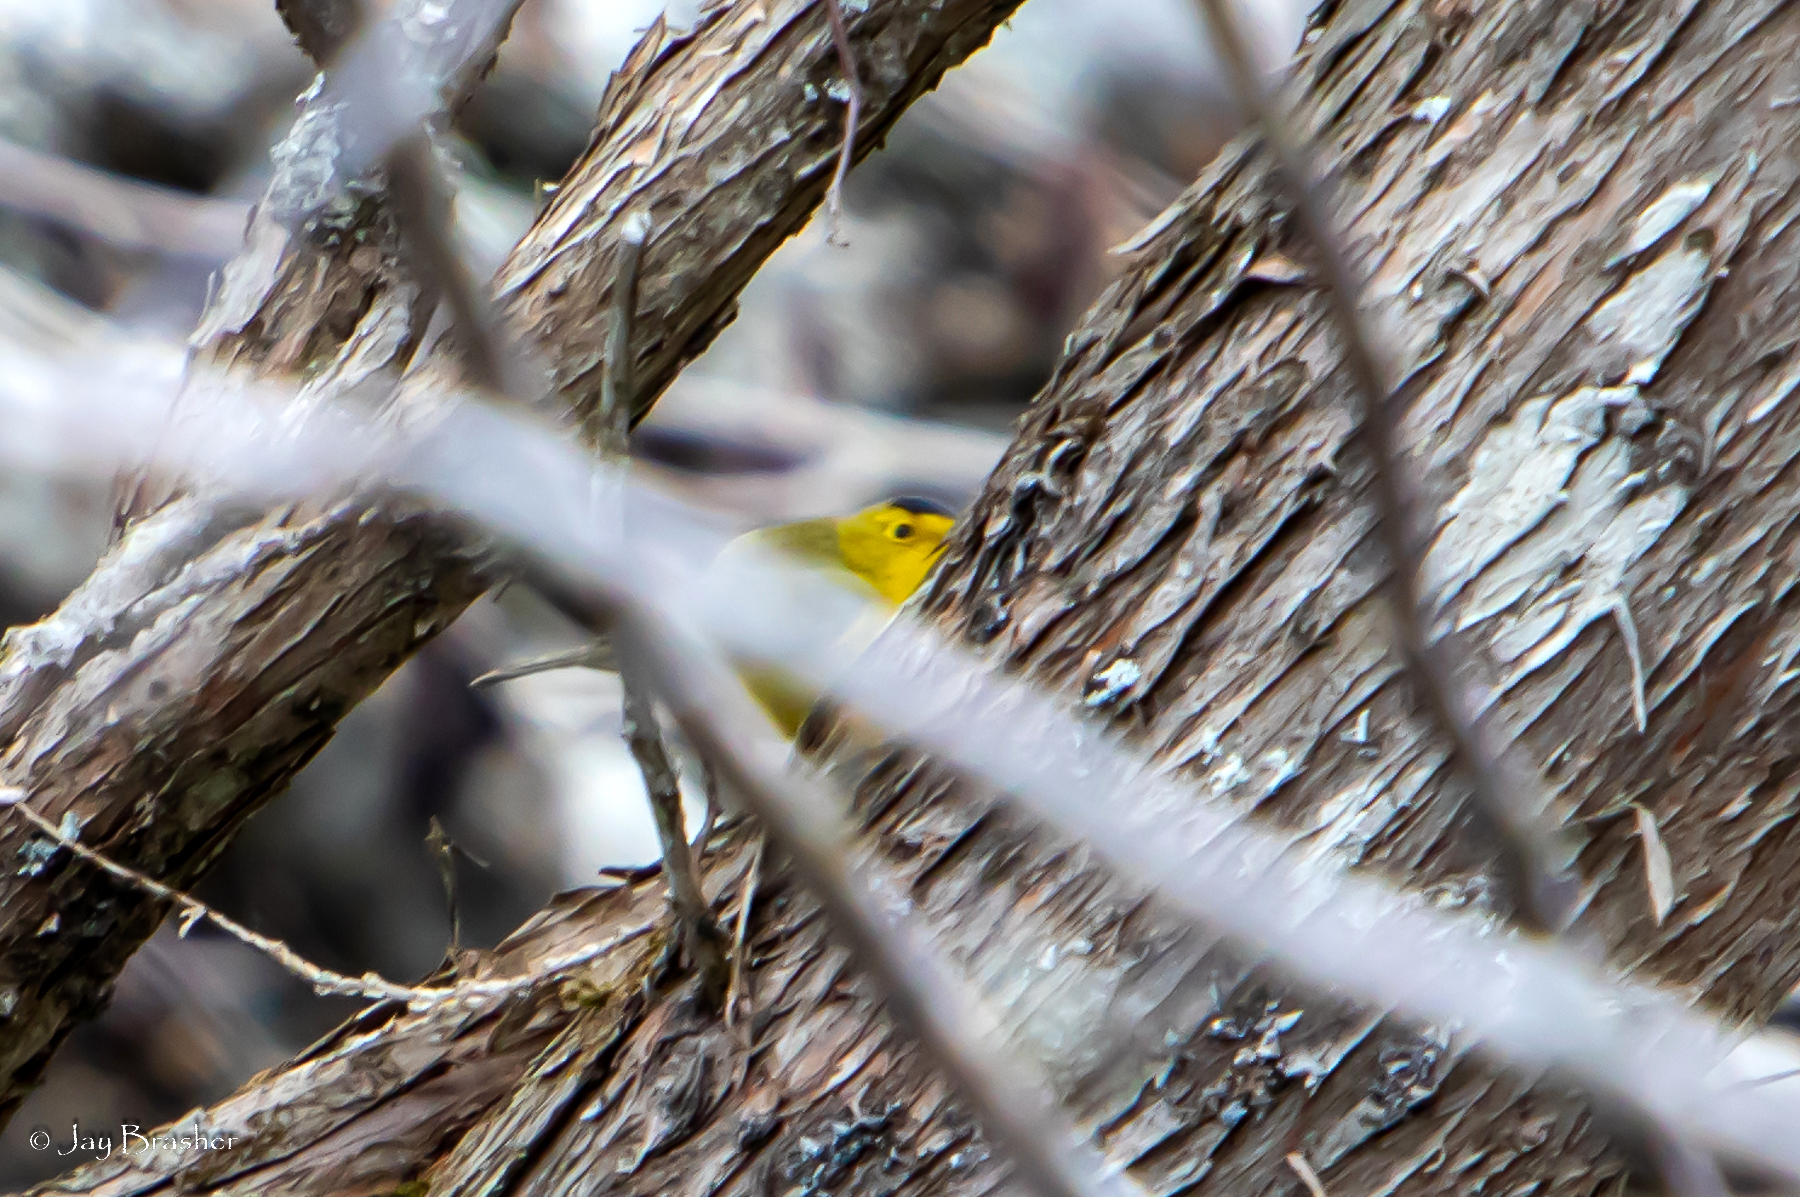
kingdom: Animalia
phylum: Chordata
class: Aves
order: Passeriformes
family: Parulidae
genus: Cardellina
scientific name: Cardellina pusilla
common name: Wilson's warbler
